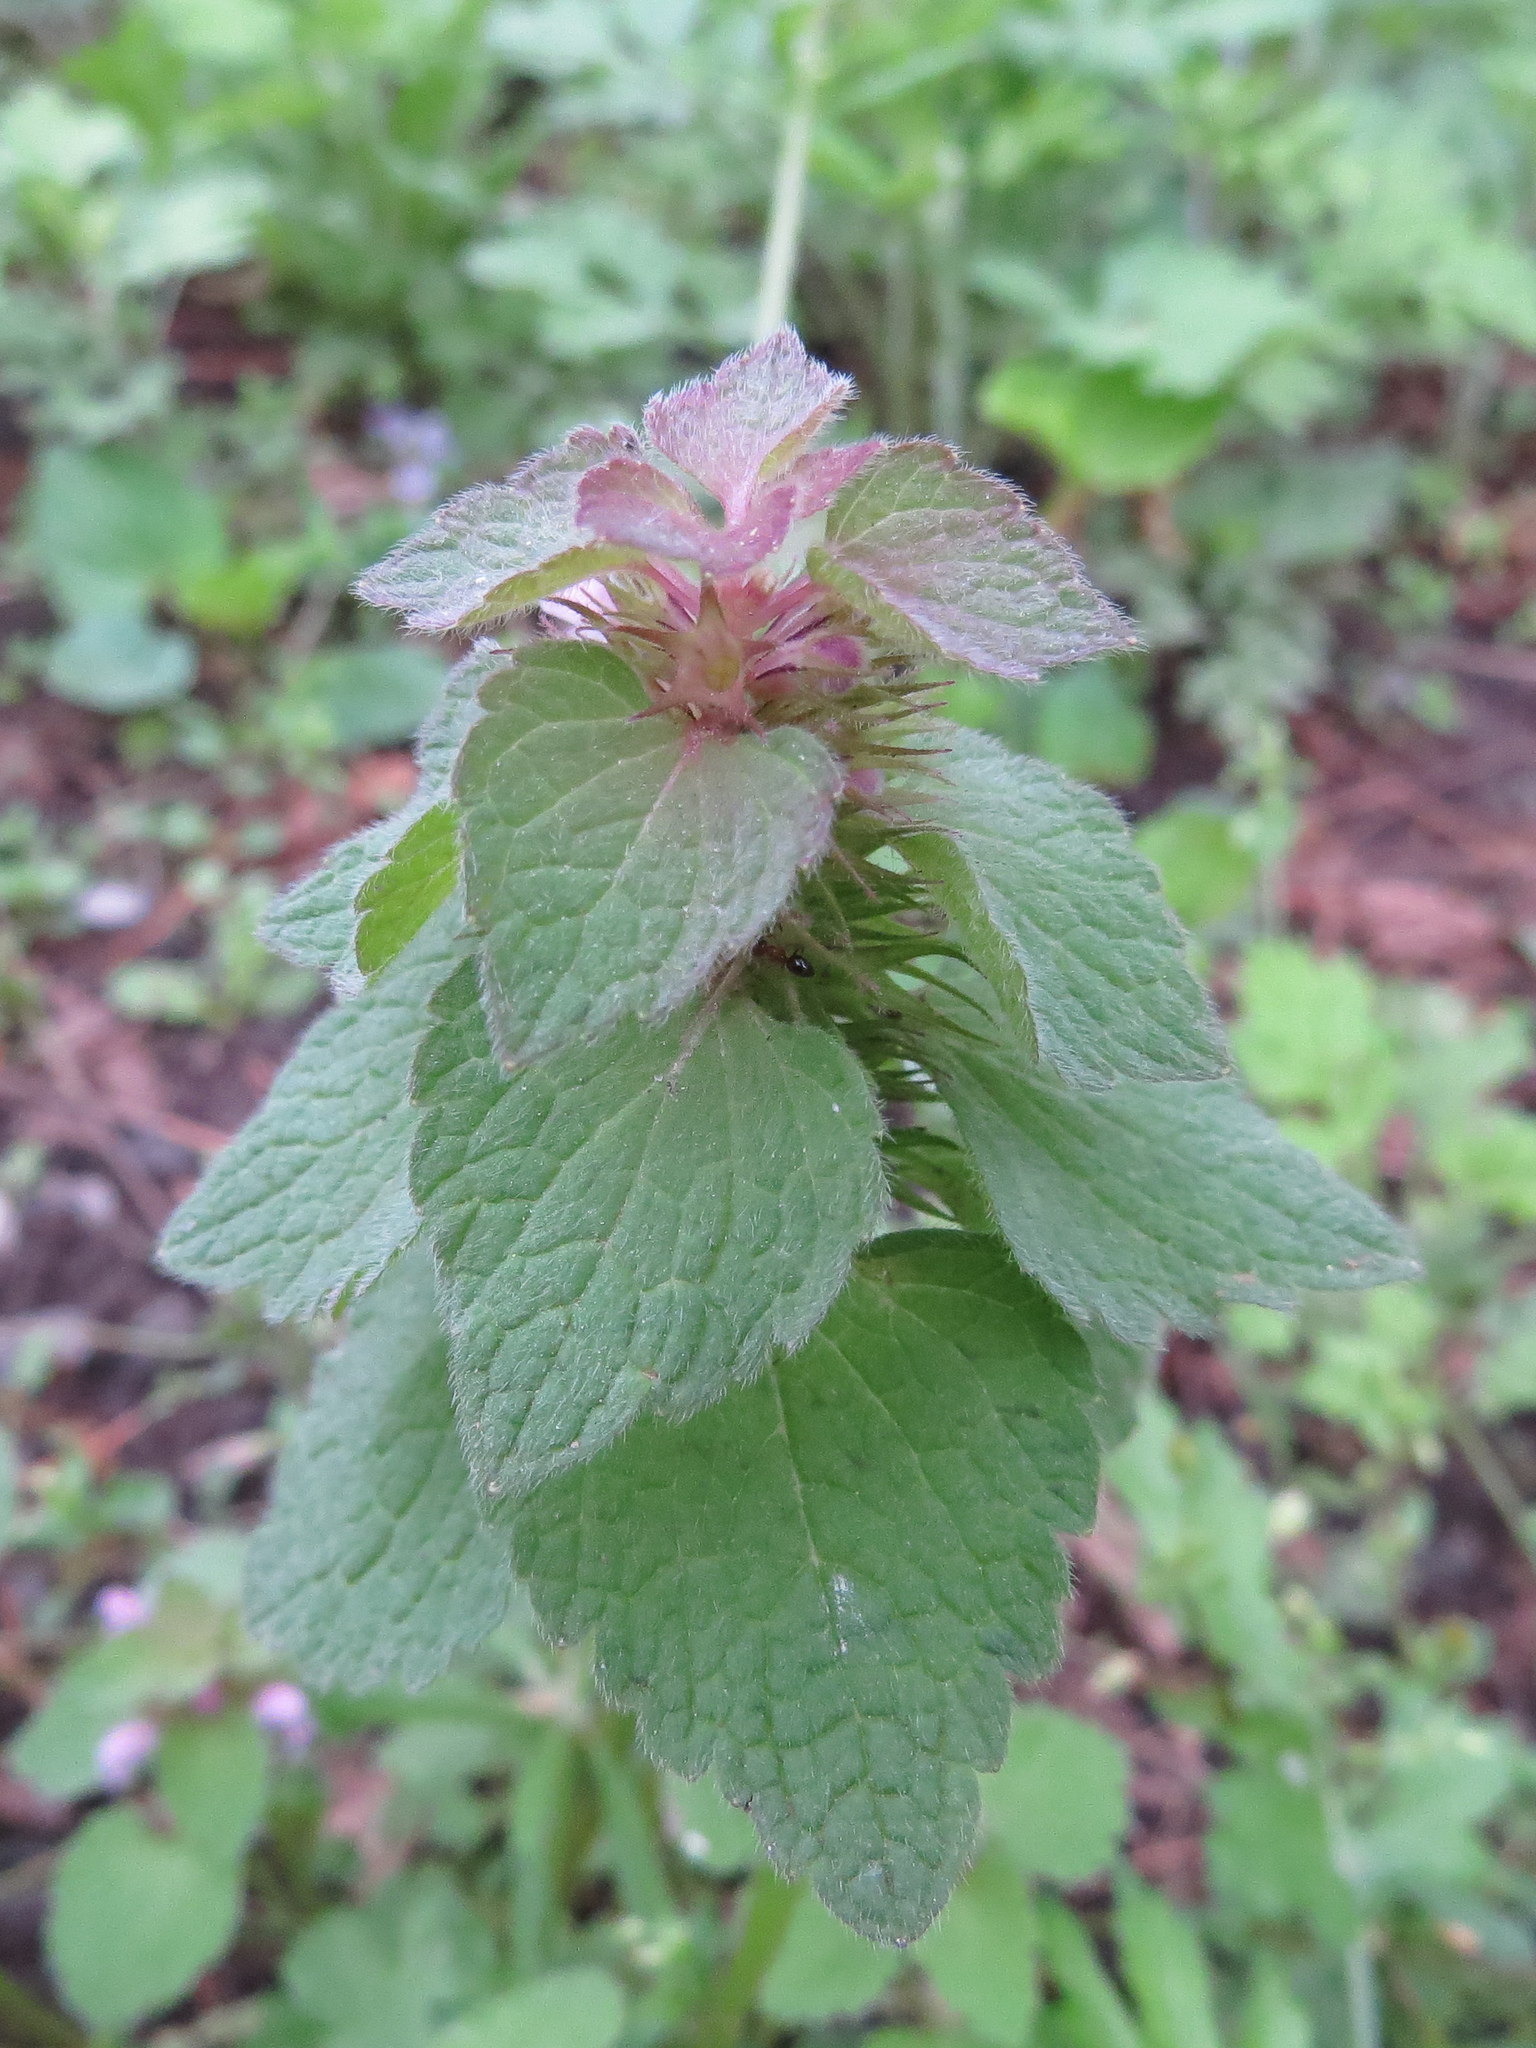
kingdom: Plantae
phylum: Tracheophyta
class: Magnoliopsida
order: Lamiales
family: Lamiaceae
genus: Lamium
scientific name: Lamium purpureum
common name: Red dead-nettle
